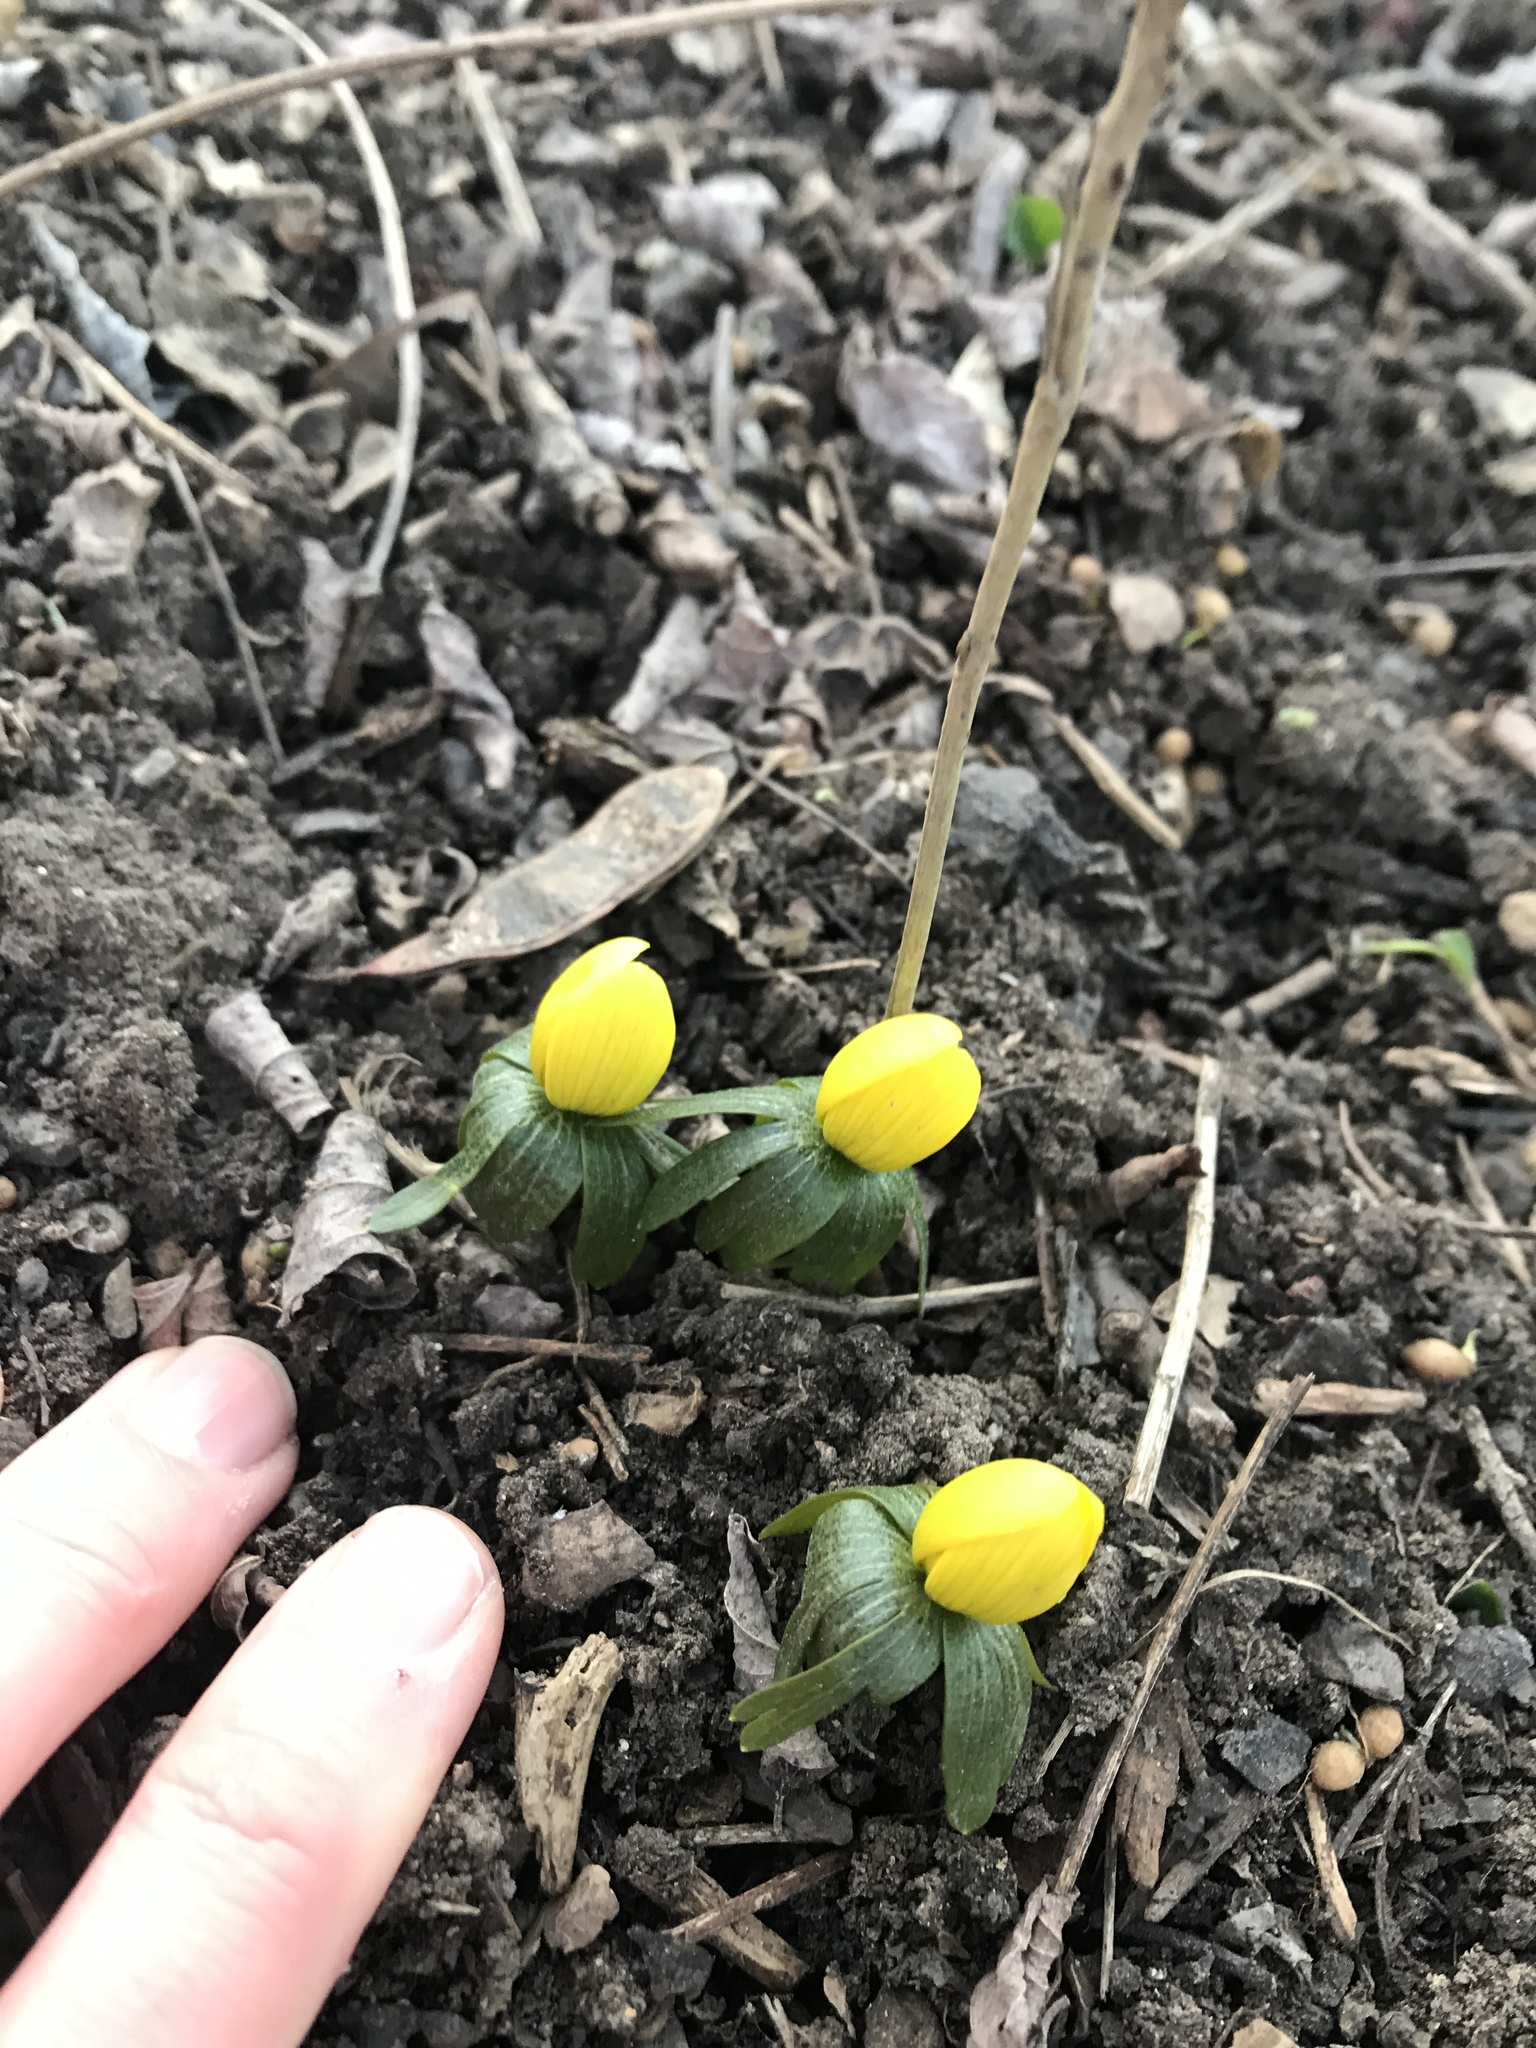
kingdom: Plantae
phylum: Tracheophyta
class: Magnoliopsida
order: Ranunculales
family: Ranunculaceae
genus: Eranthis
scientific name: Eranthis hyemalis
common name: Winter aconite
